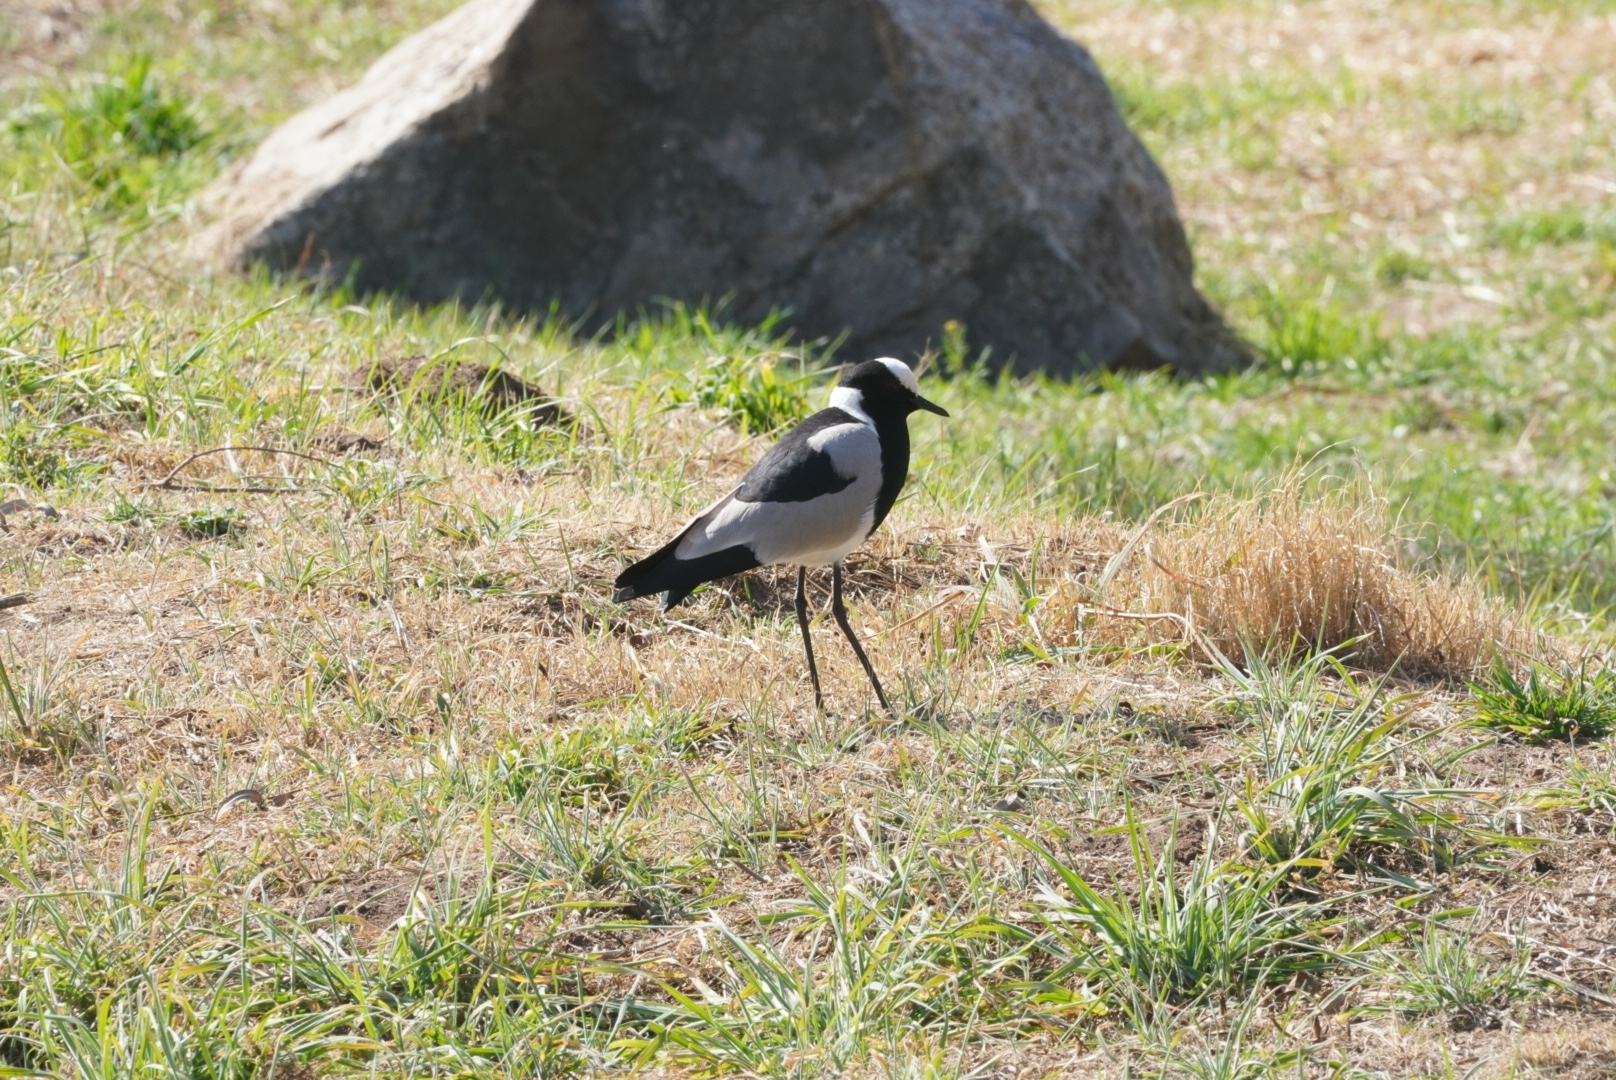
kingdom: Animalia
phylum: Chordata
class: Aves
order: Charadriiformes
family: Charadriidae
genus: Vanellus
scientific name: Vanellus armatus
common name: Blacksmith lapwing
